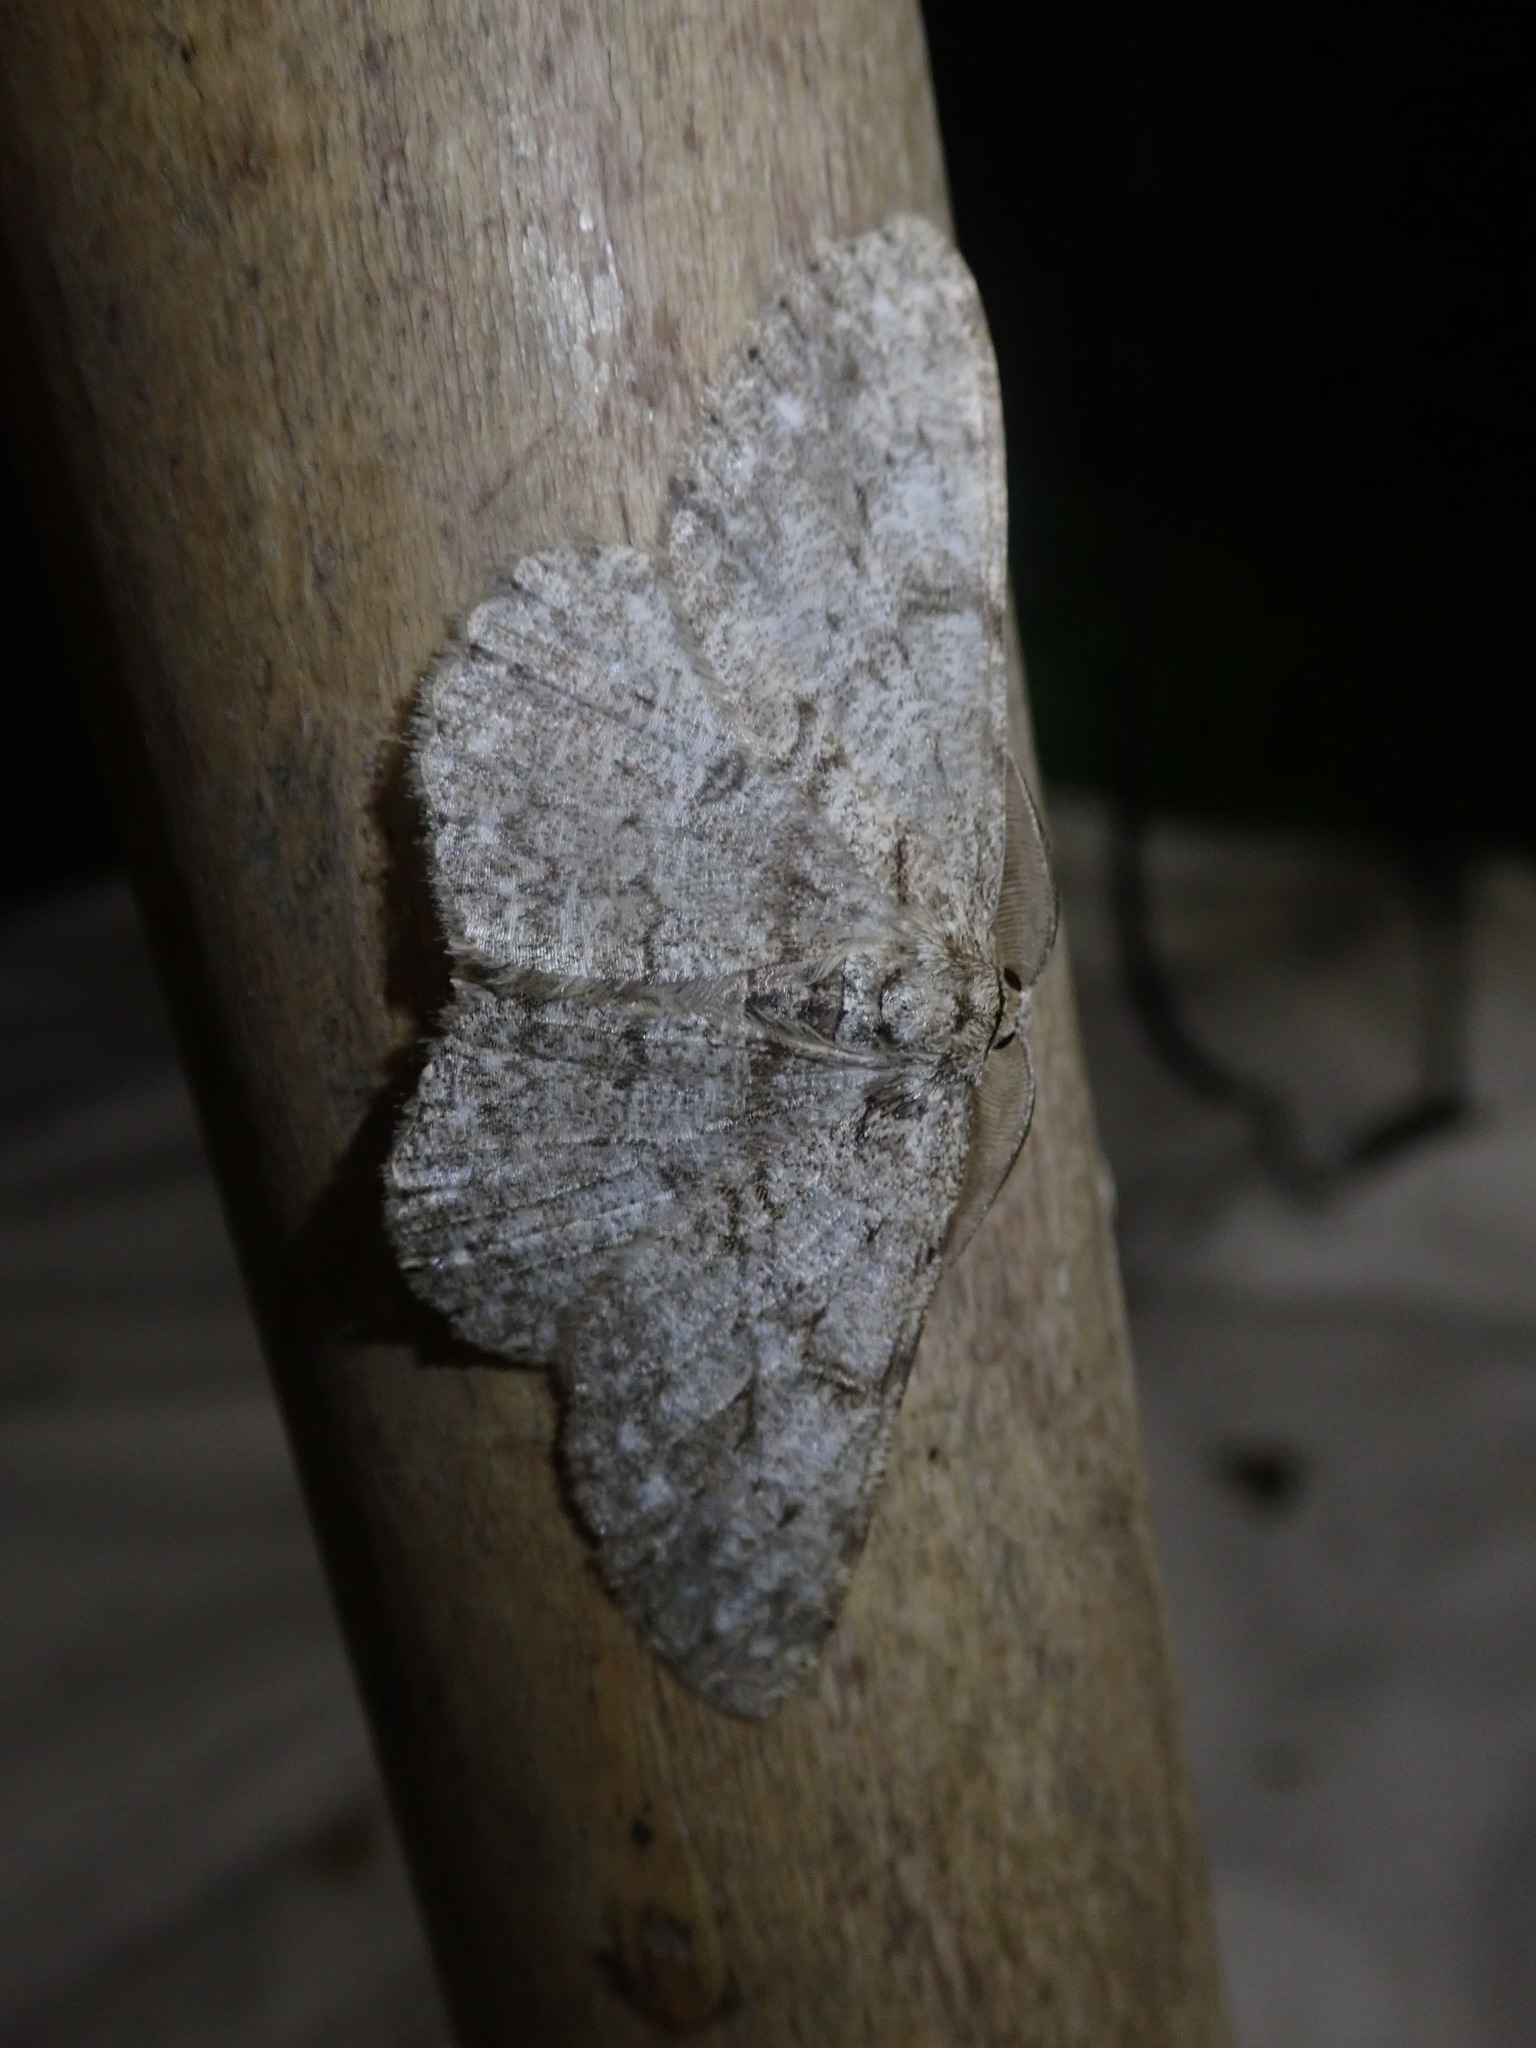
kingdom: Animalia
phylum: Arthropoda
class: Insecta
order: Lepidoptera
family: Geometridae
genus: Hypomecis
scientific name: Hypomecis punctinalis
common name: Pale oak beauty
